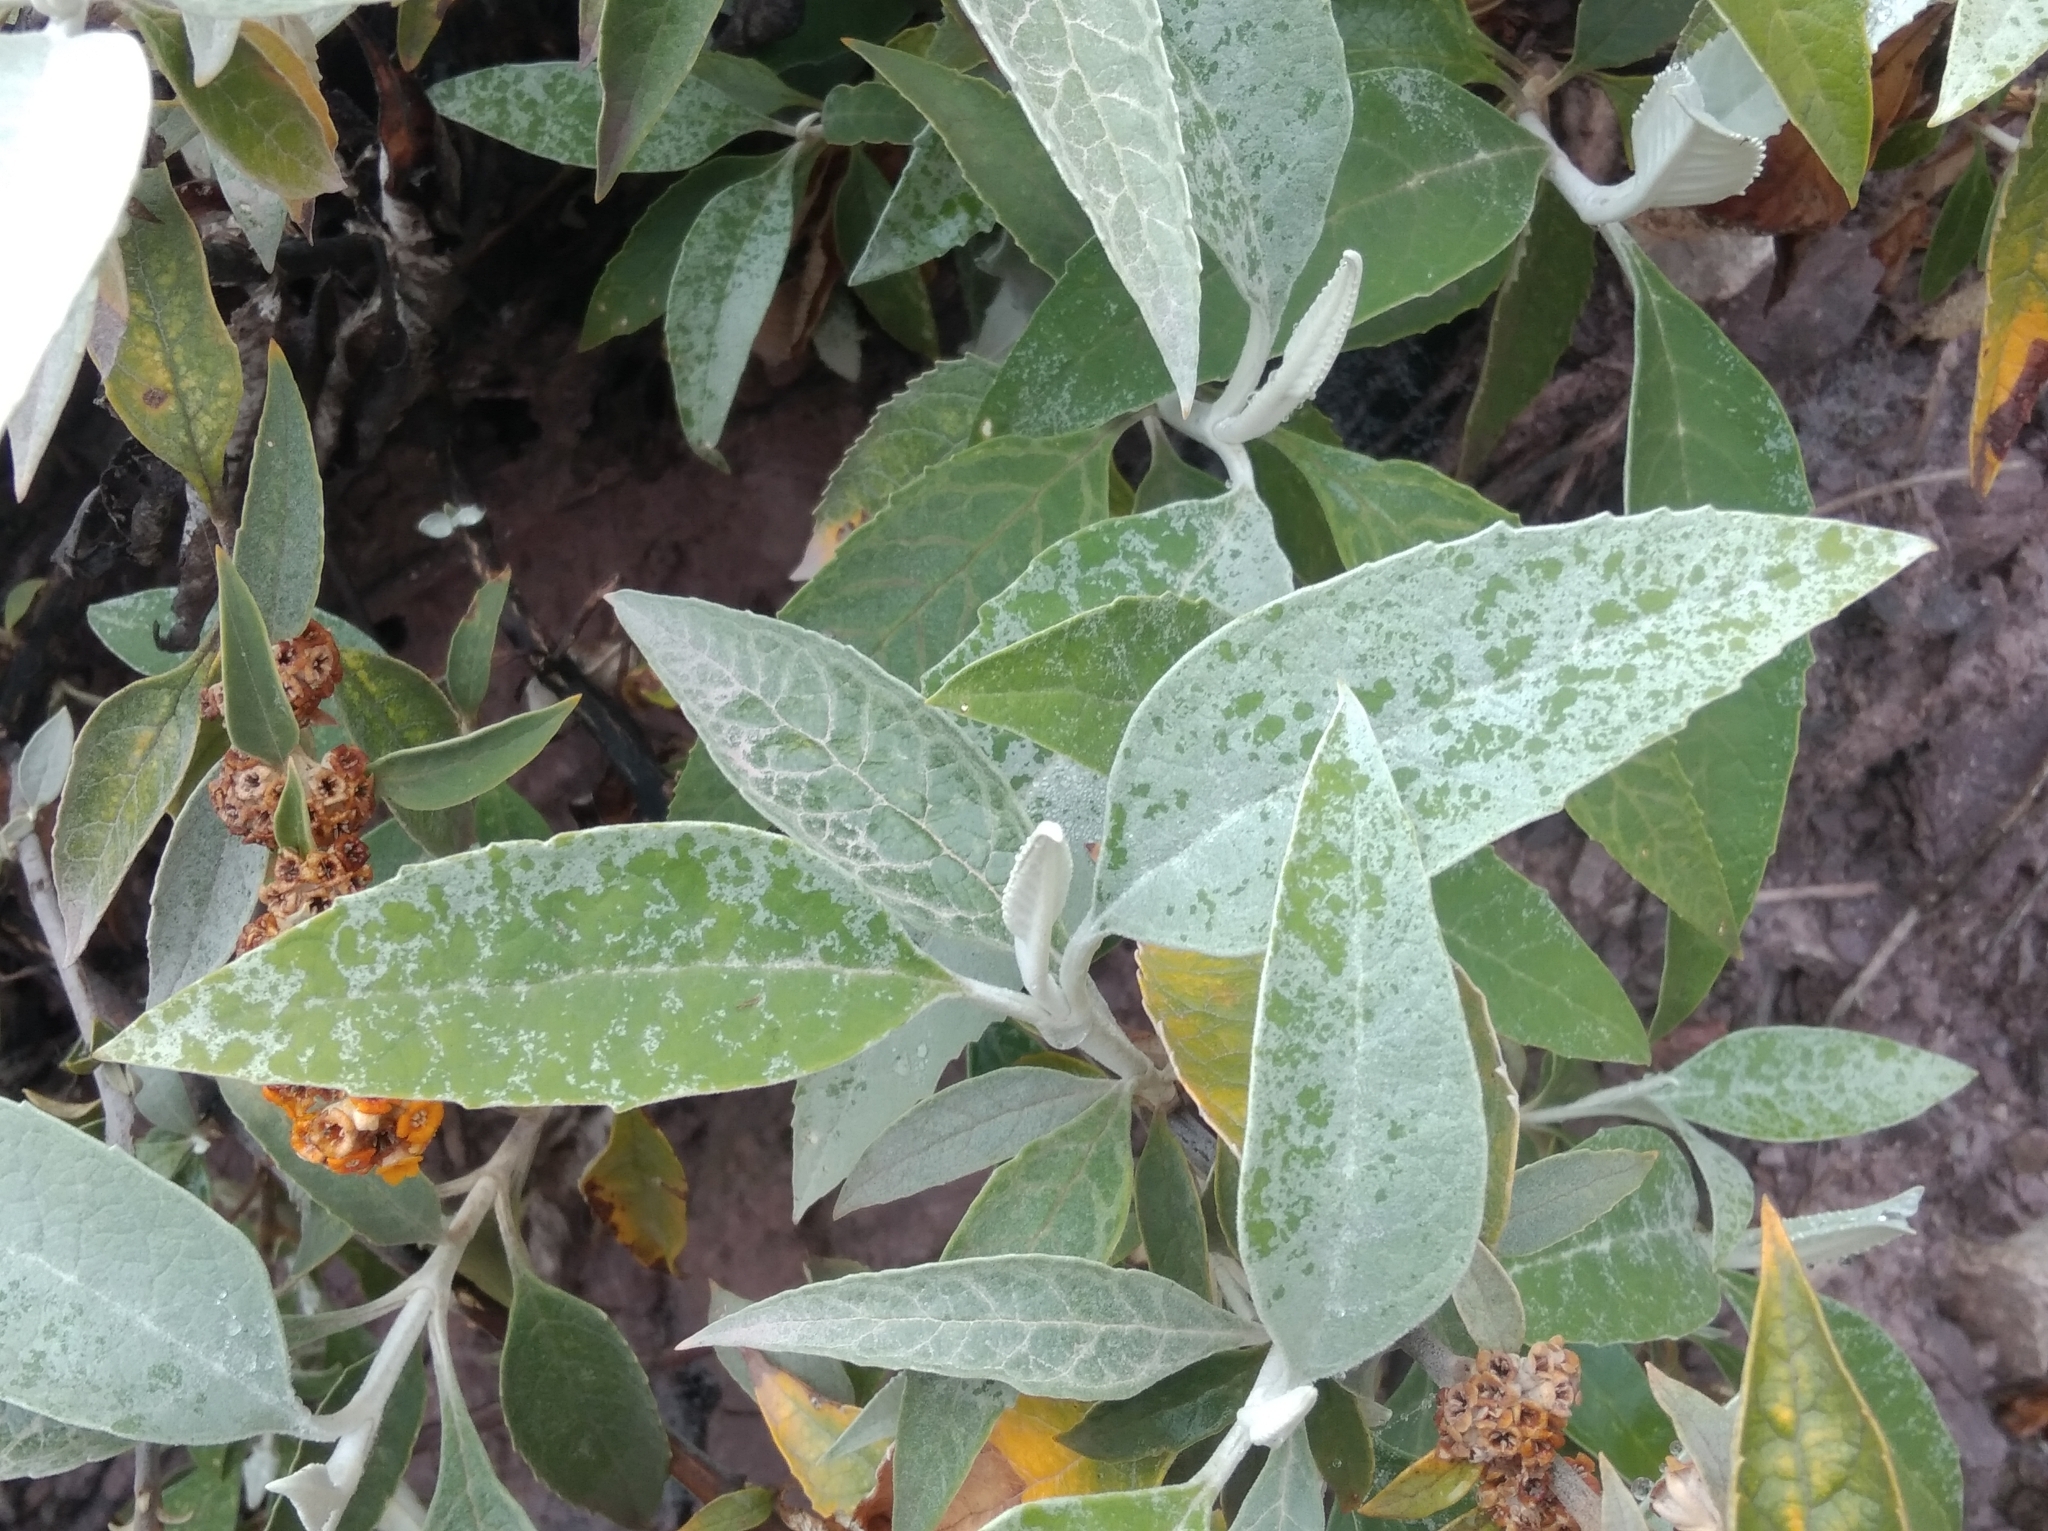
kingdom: Plantae
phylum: Tracheophyta
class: Magnoliopsida
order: Lamiales
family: Scrophulariaceae
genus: Buddleja
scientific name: Buddleja tucumanensis
